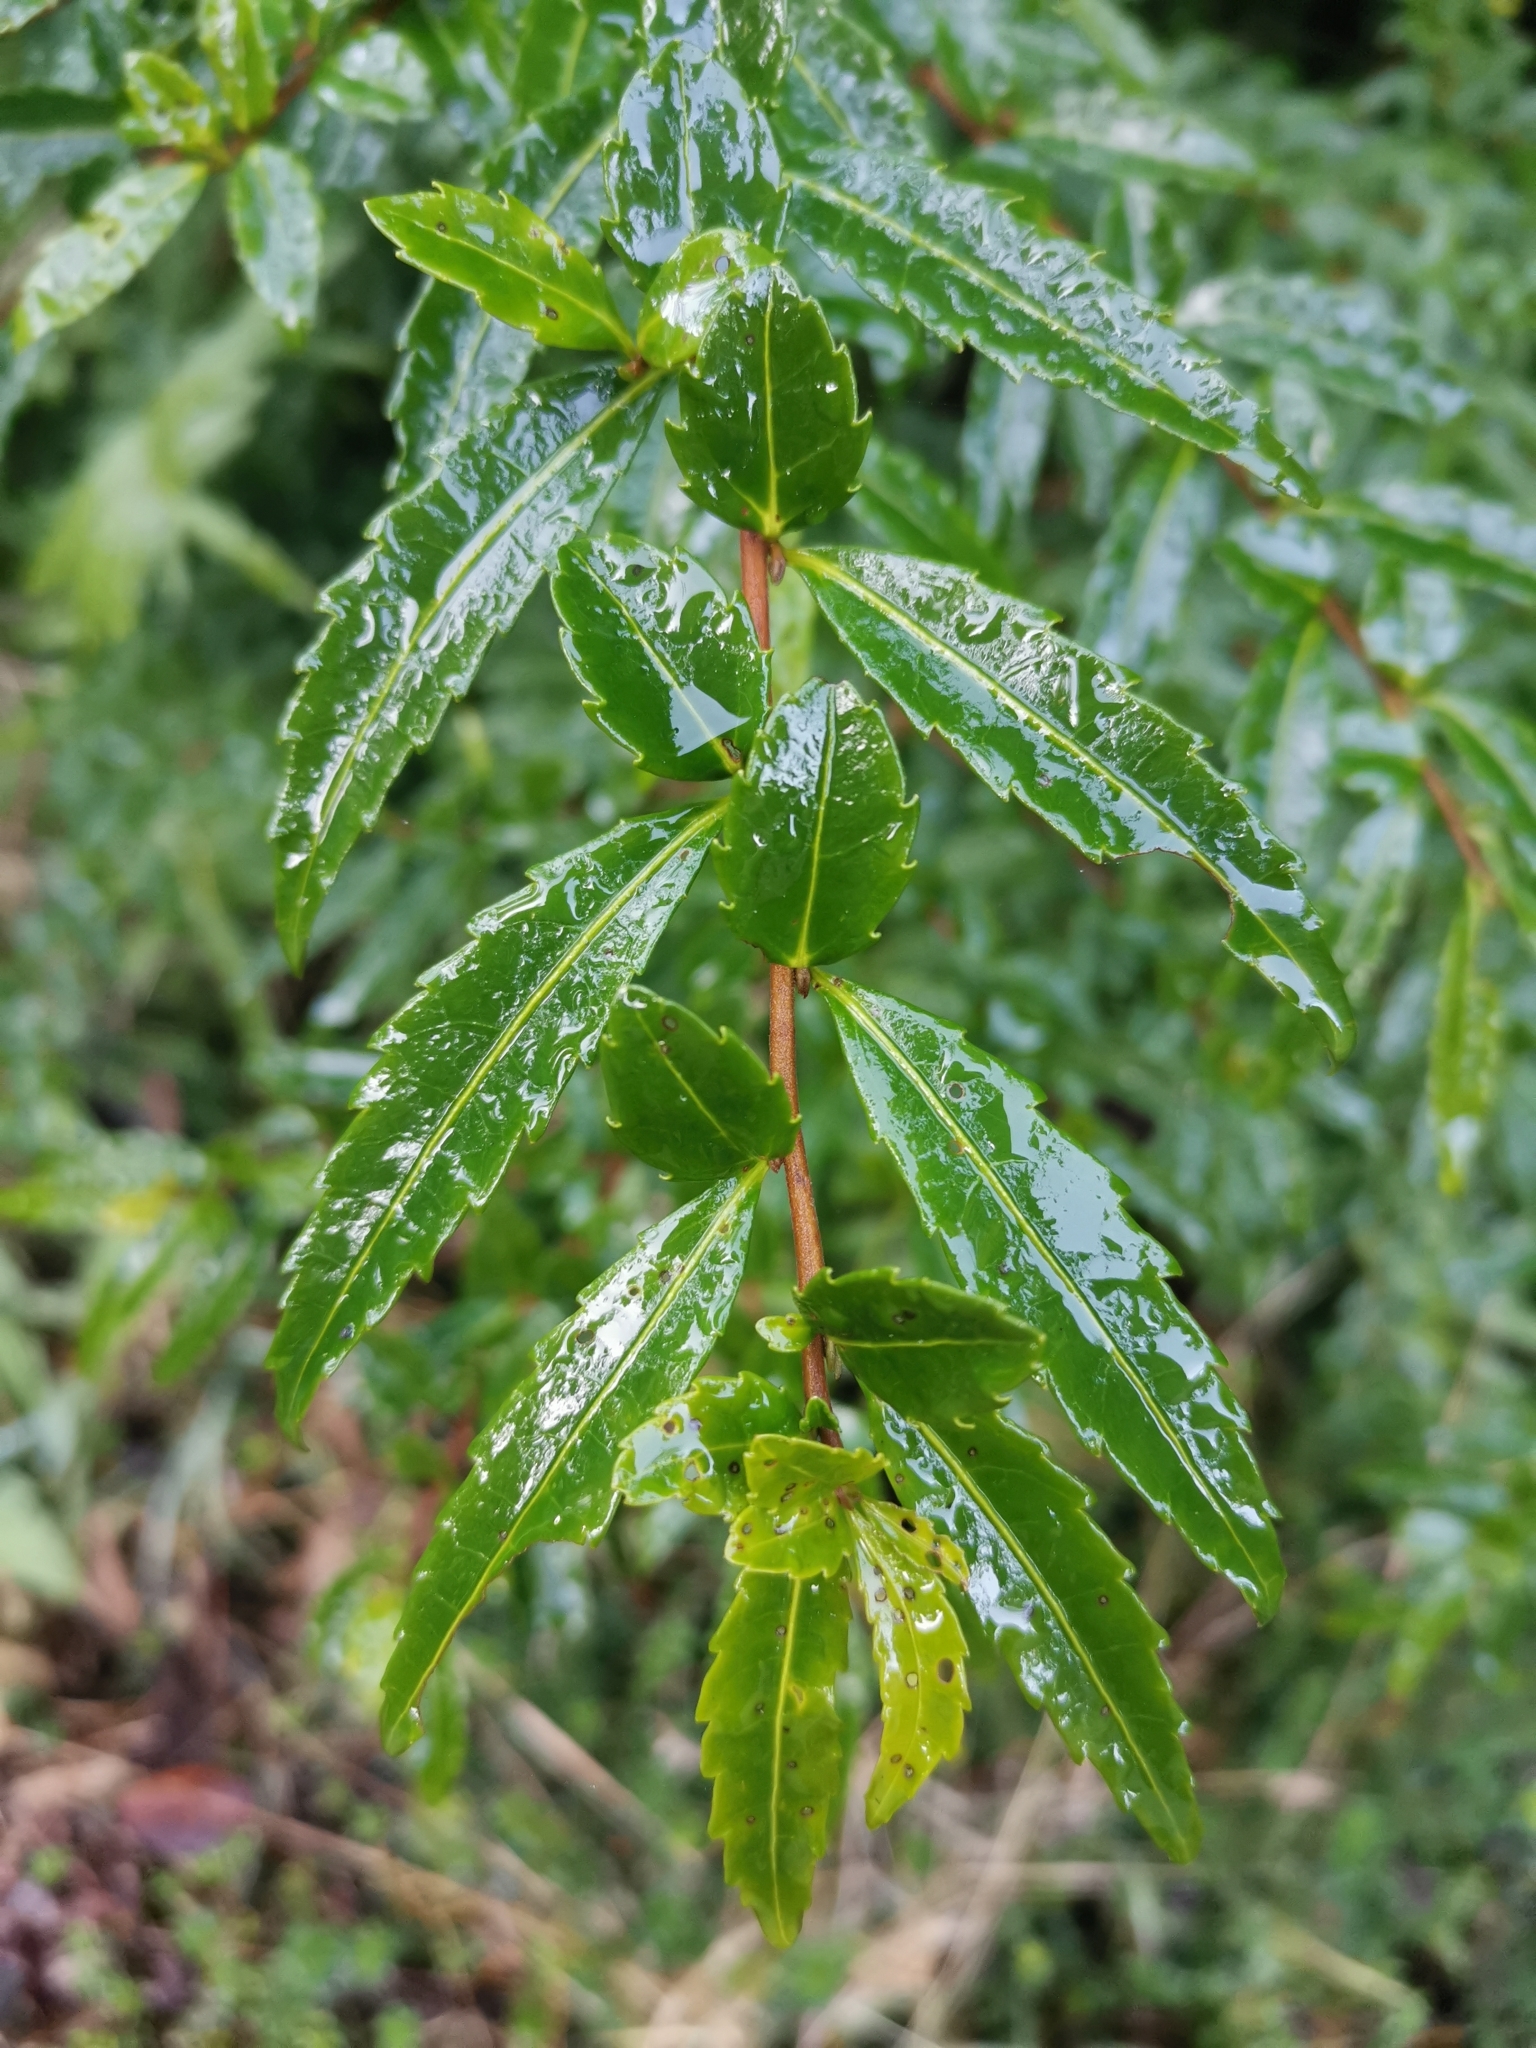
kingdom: Plantae
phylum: Tracheophyta
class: Magnoliopsida
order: Malpighiales
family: Salicaceae
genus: Azara
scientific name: Azara lanceolata
